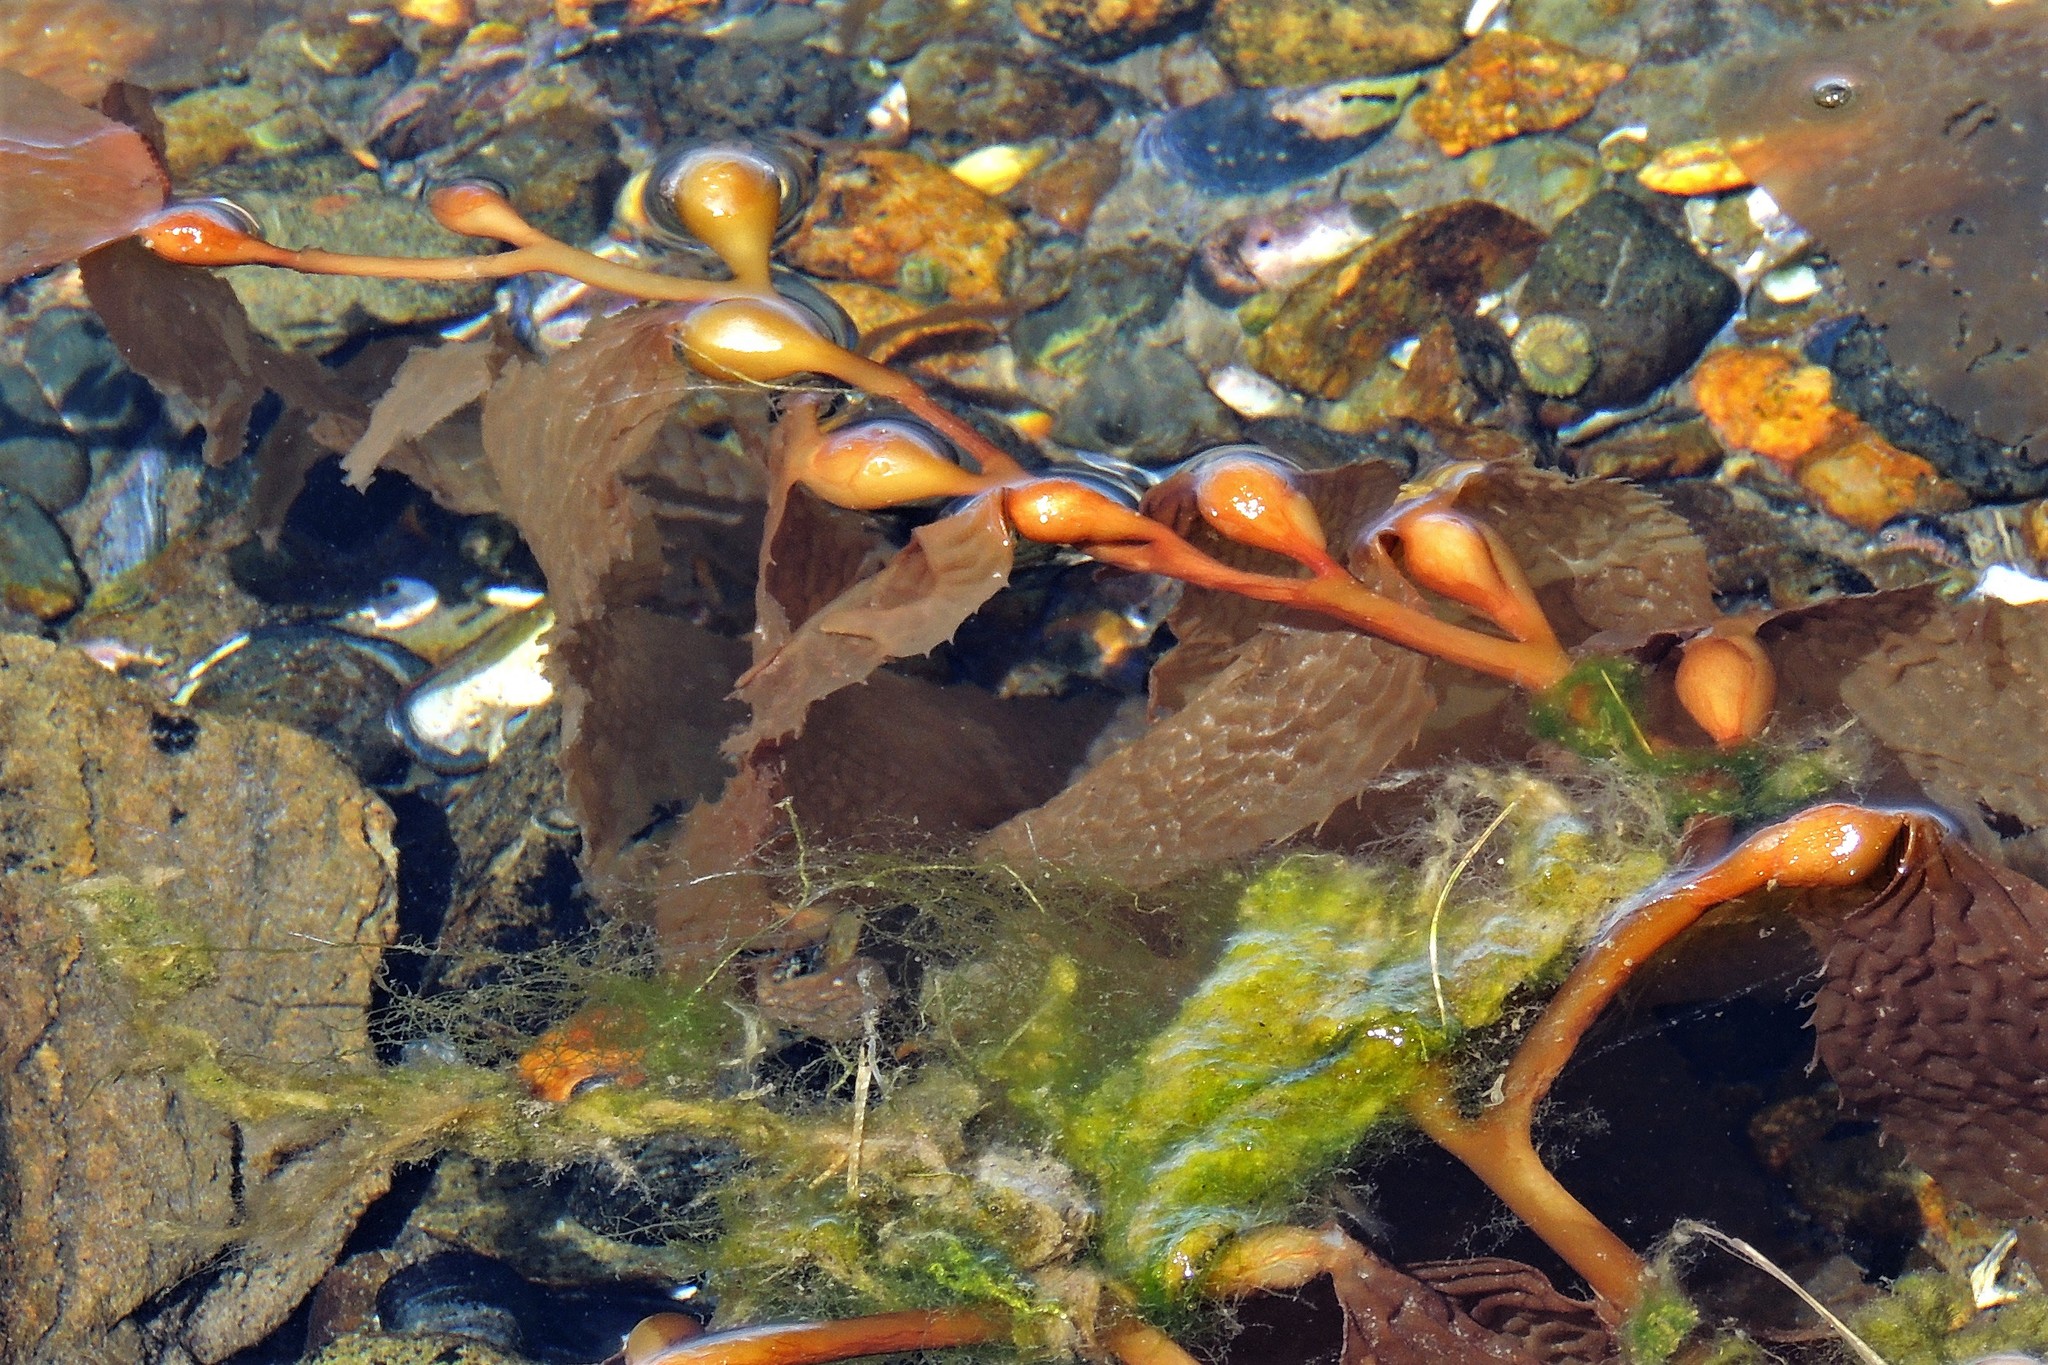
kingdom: Chromista
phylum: Ochrophyta
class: Phaeophyceae
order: Laminariales
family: Laminariaceae
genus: Macrocystis
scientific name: Macrocystis pyrifera
